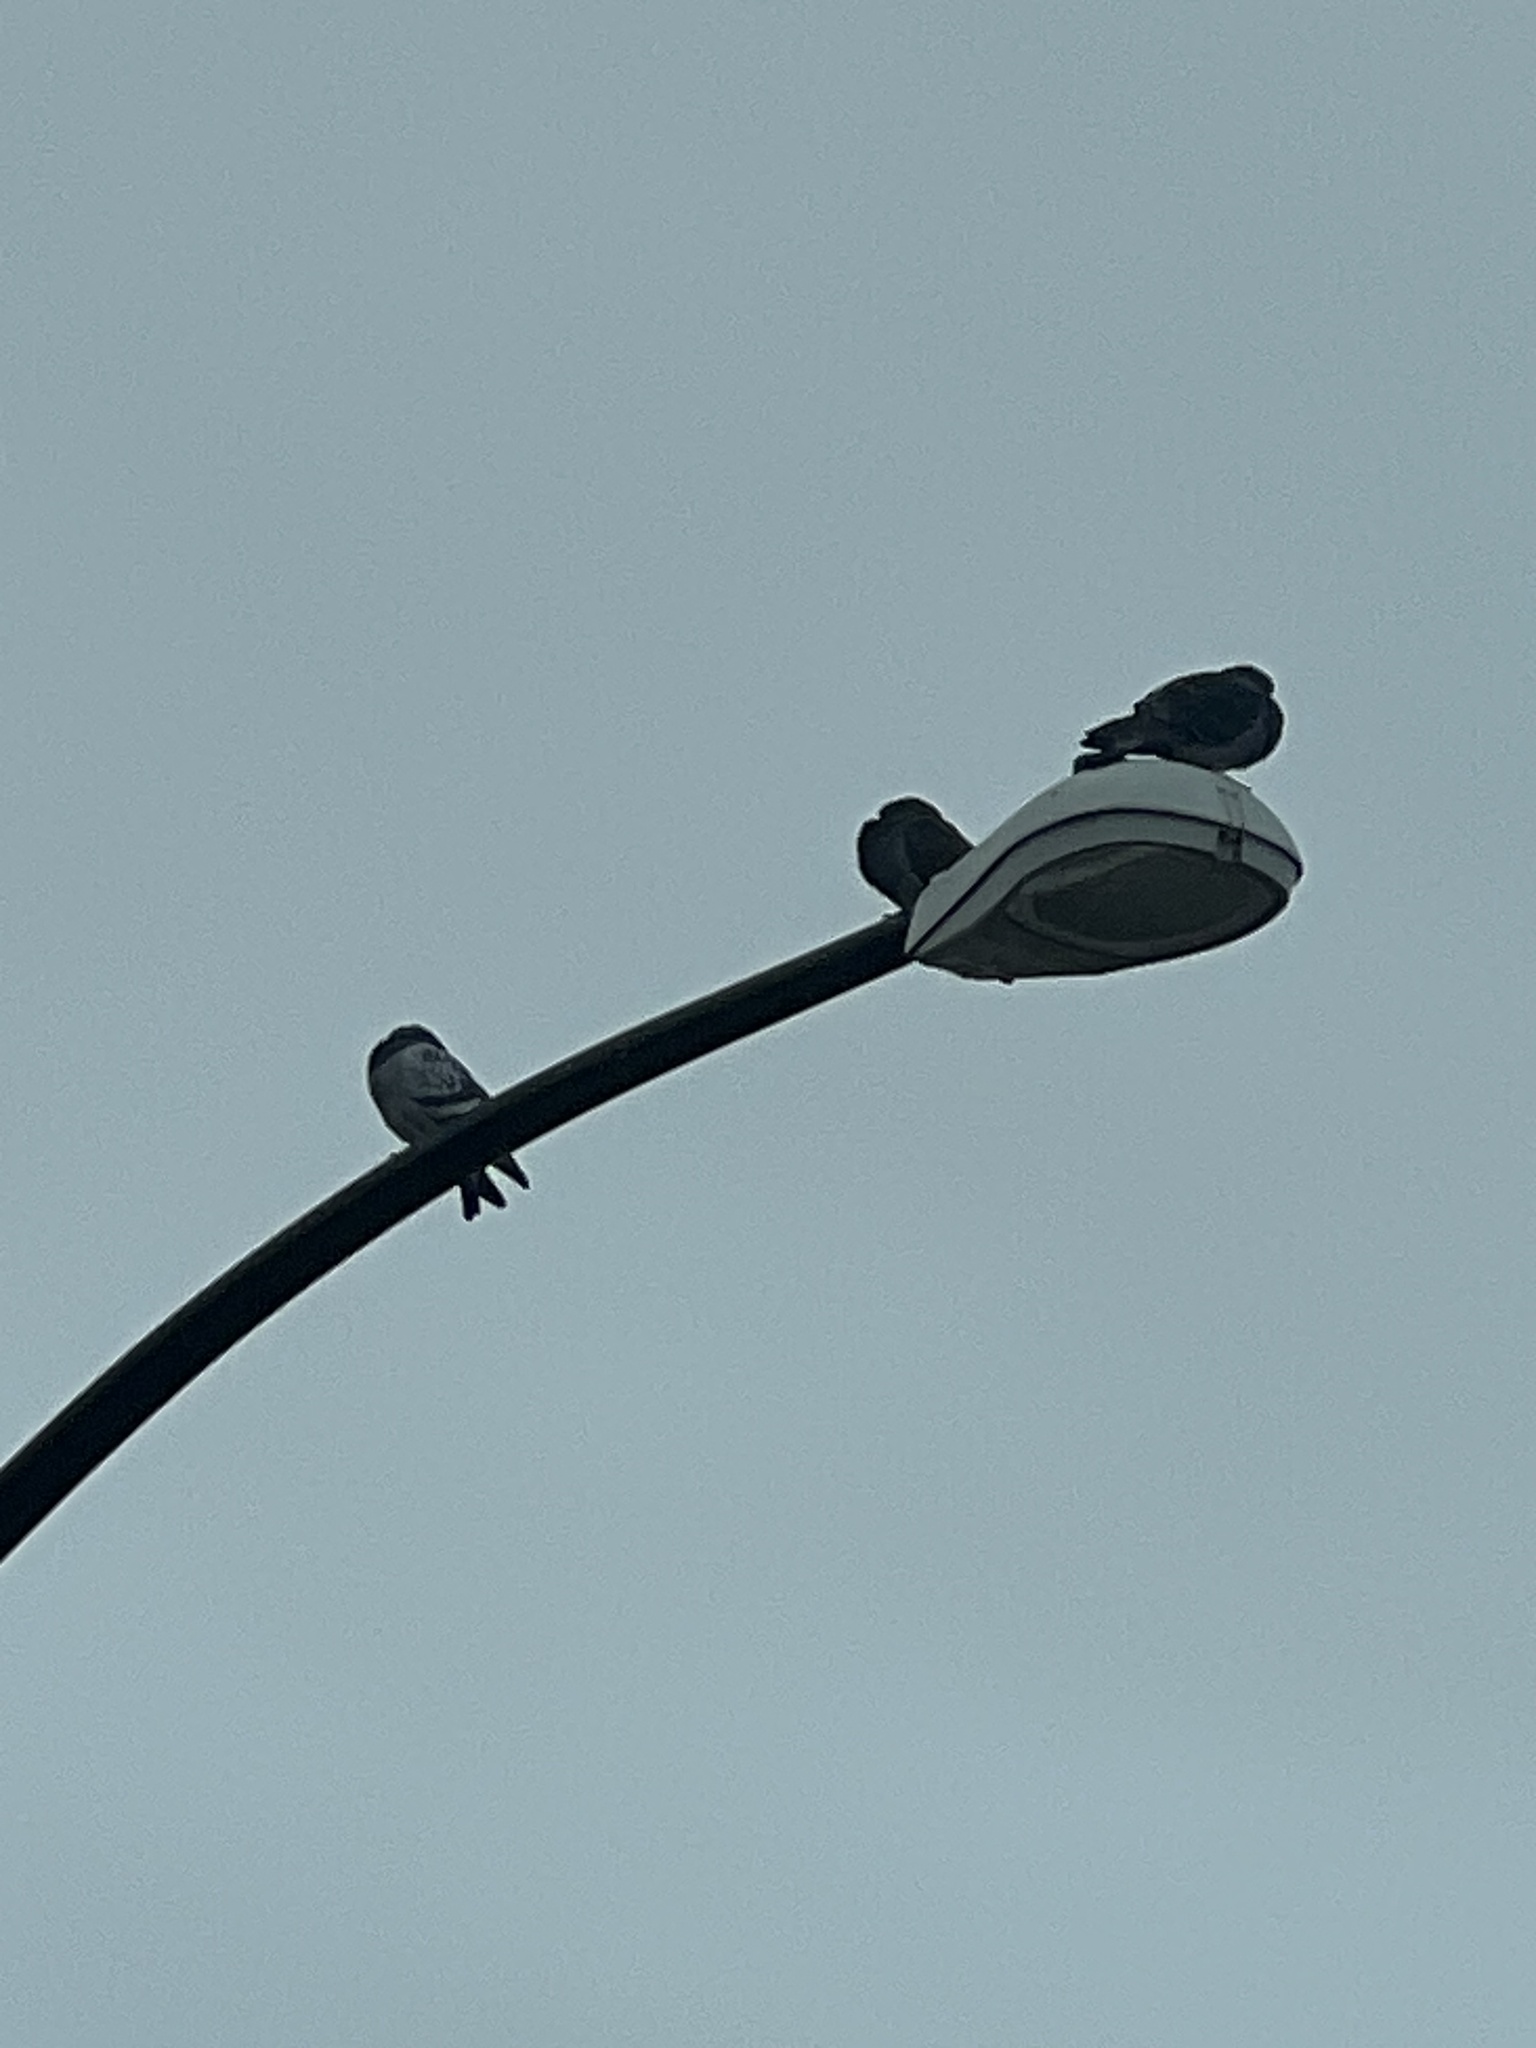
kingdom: Animalia
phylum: Chordata
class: Aves
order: Columbiformes
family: Columbidae
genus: Columba
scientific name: Columba livia
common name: Rock pigeon
